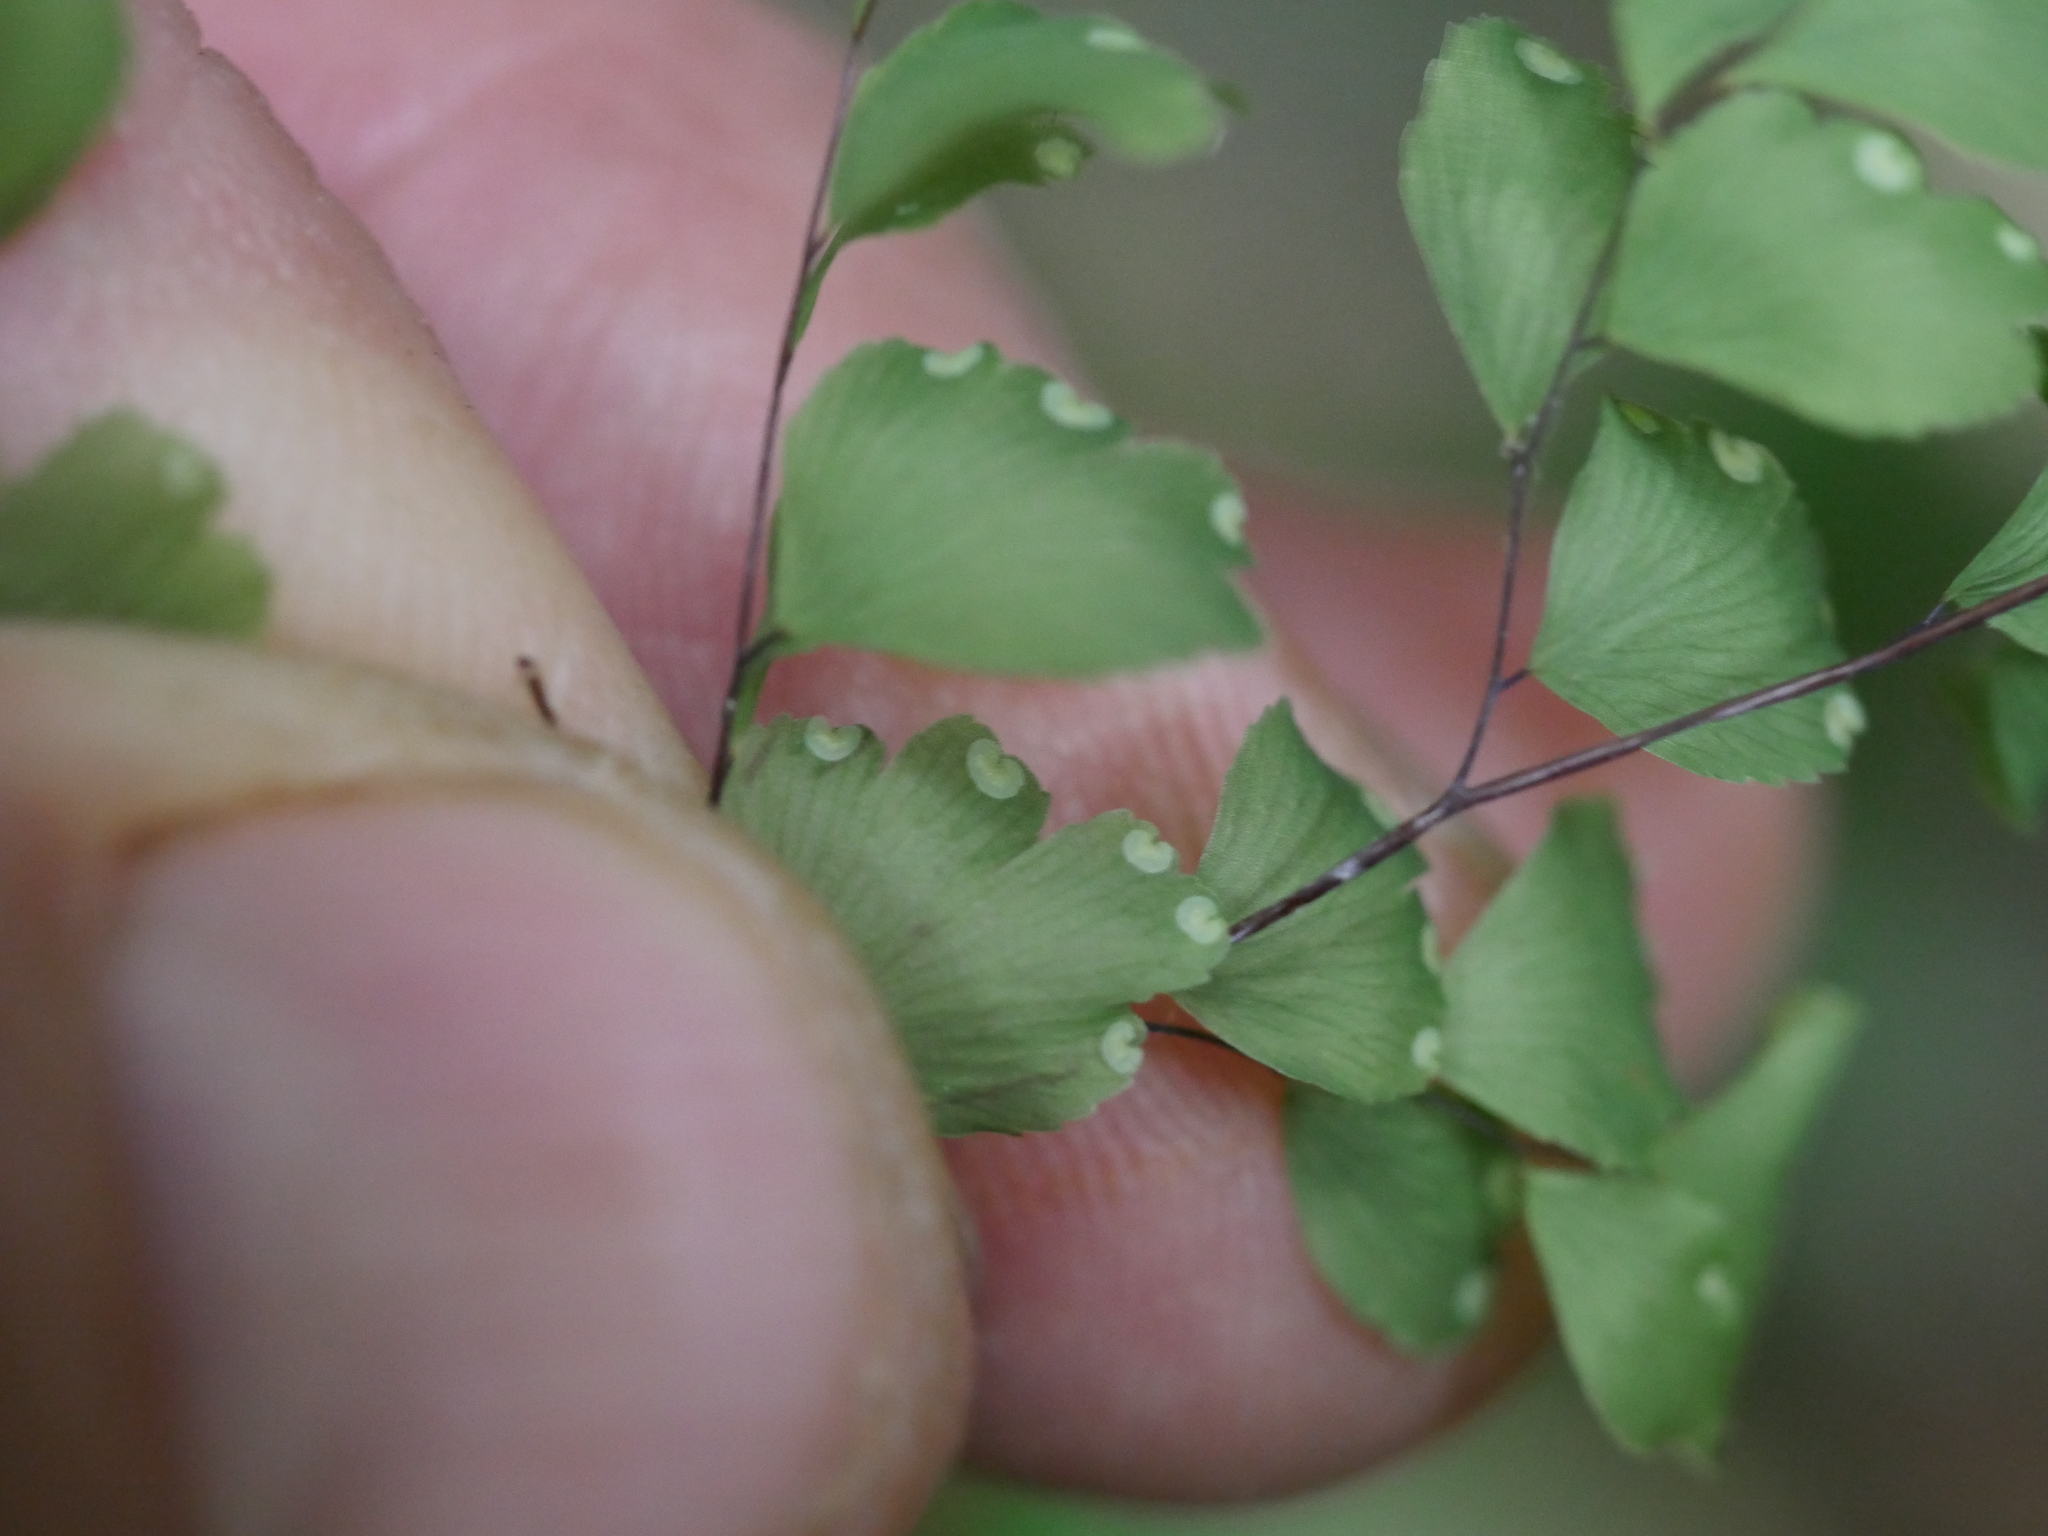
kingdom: Plantae
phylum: Tracheophyta
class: Polypodiopsida
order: Polypodiales
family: Pteridaceae
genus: Adiantum
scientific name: Adiantum raddianum
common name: Delta maidenhair fern
